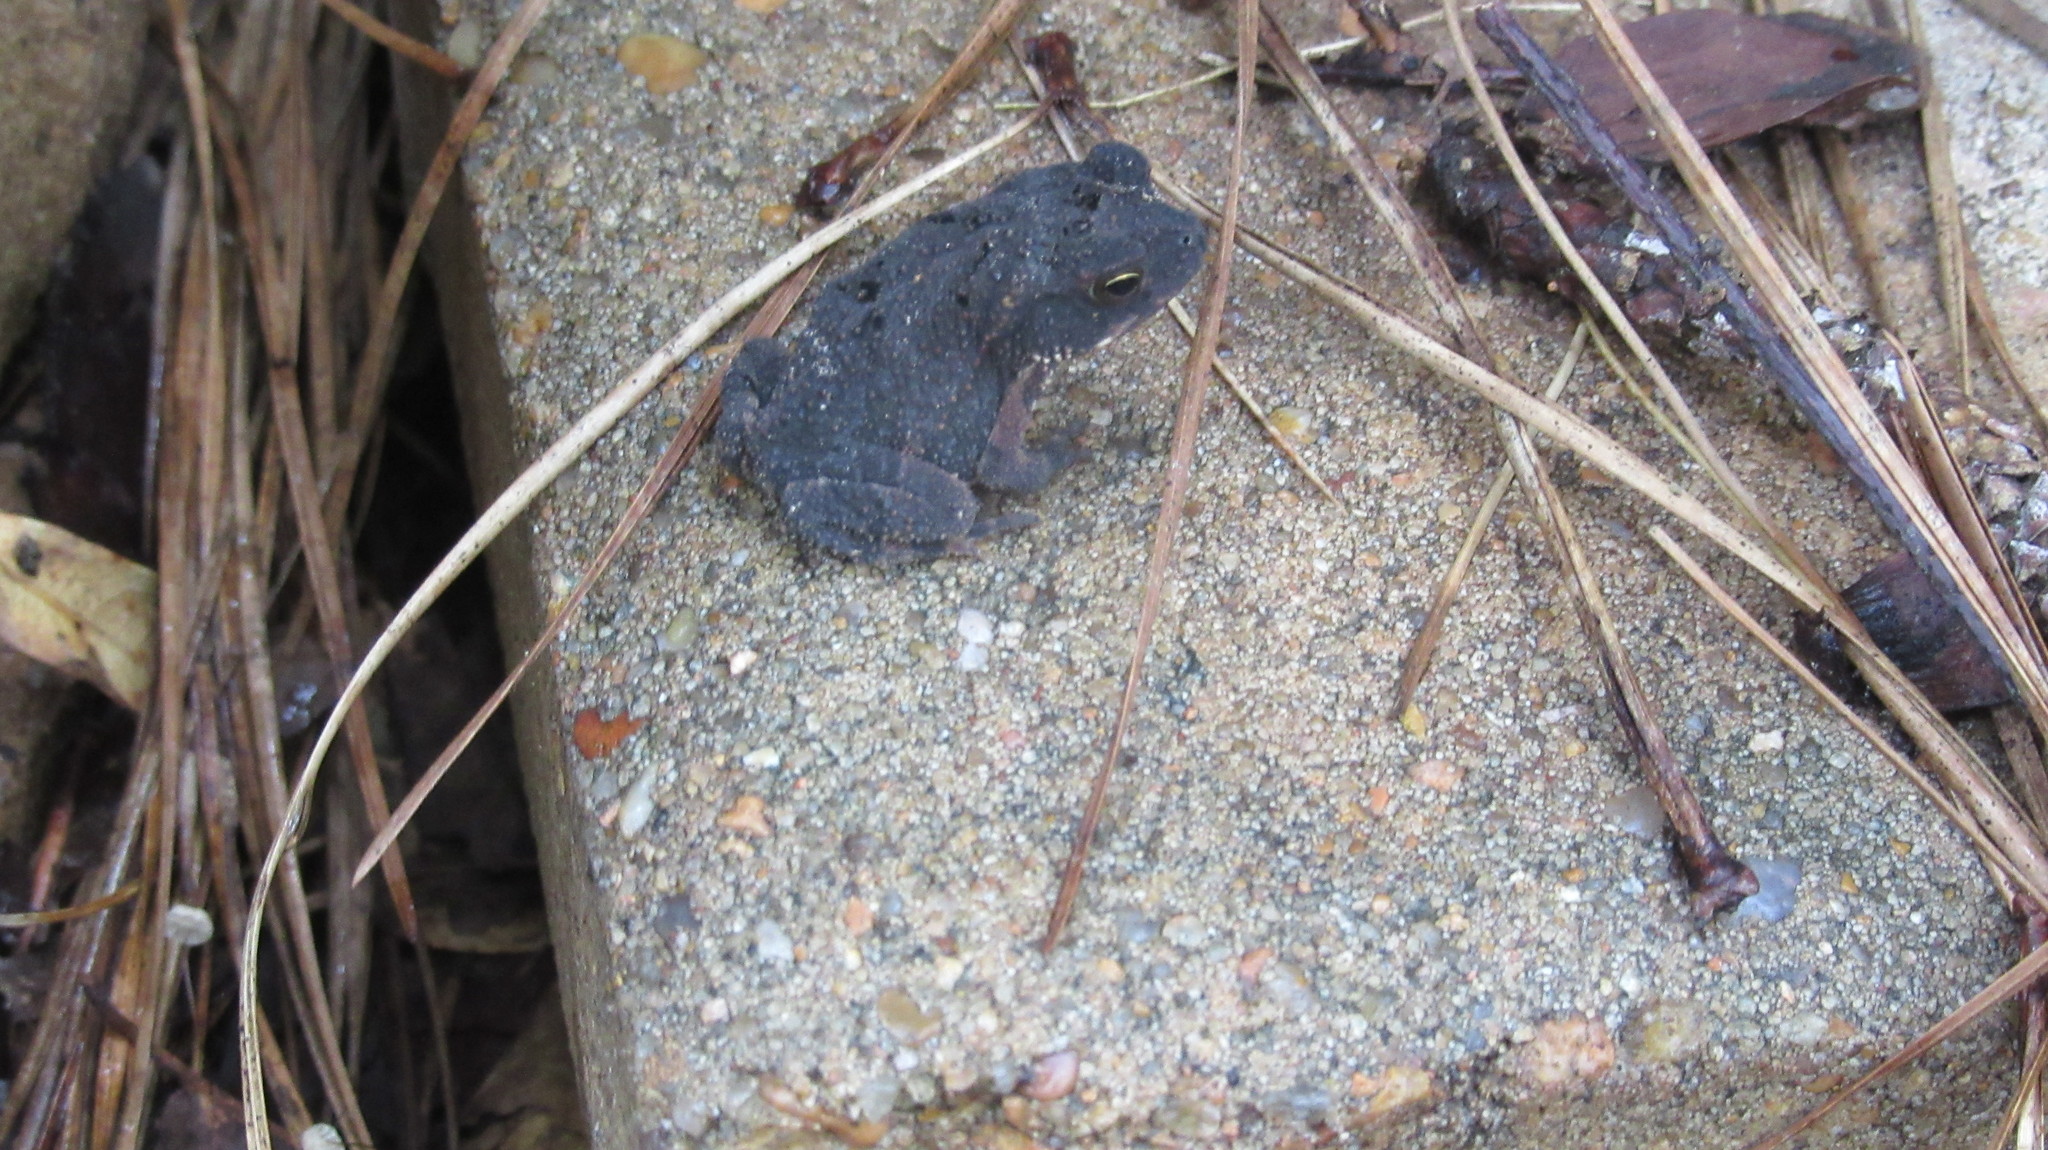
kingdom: Animalia
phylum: Chordata
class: Amphibia
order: Anura
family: Bufonidae
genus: Incilius
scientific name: Incilius nebulifer
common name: Gulf coast toad
